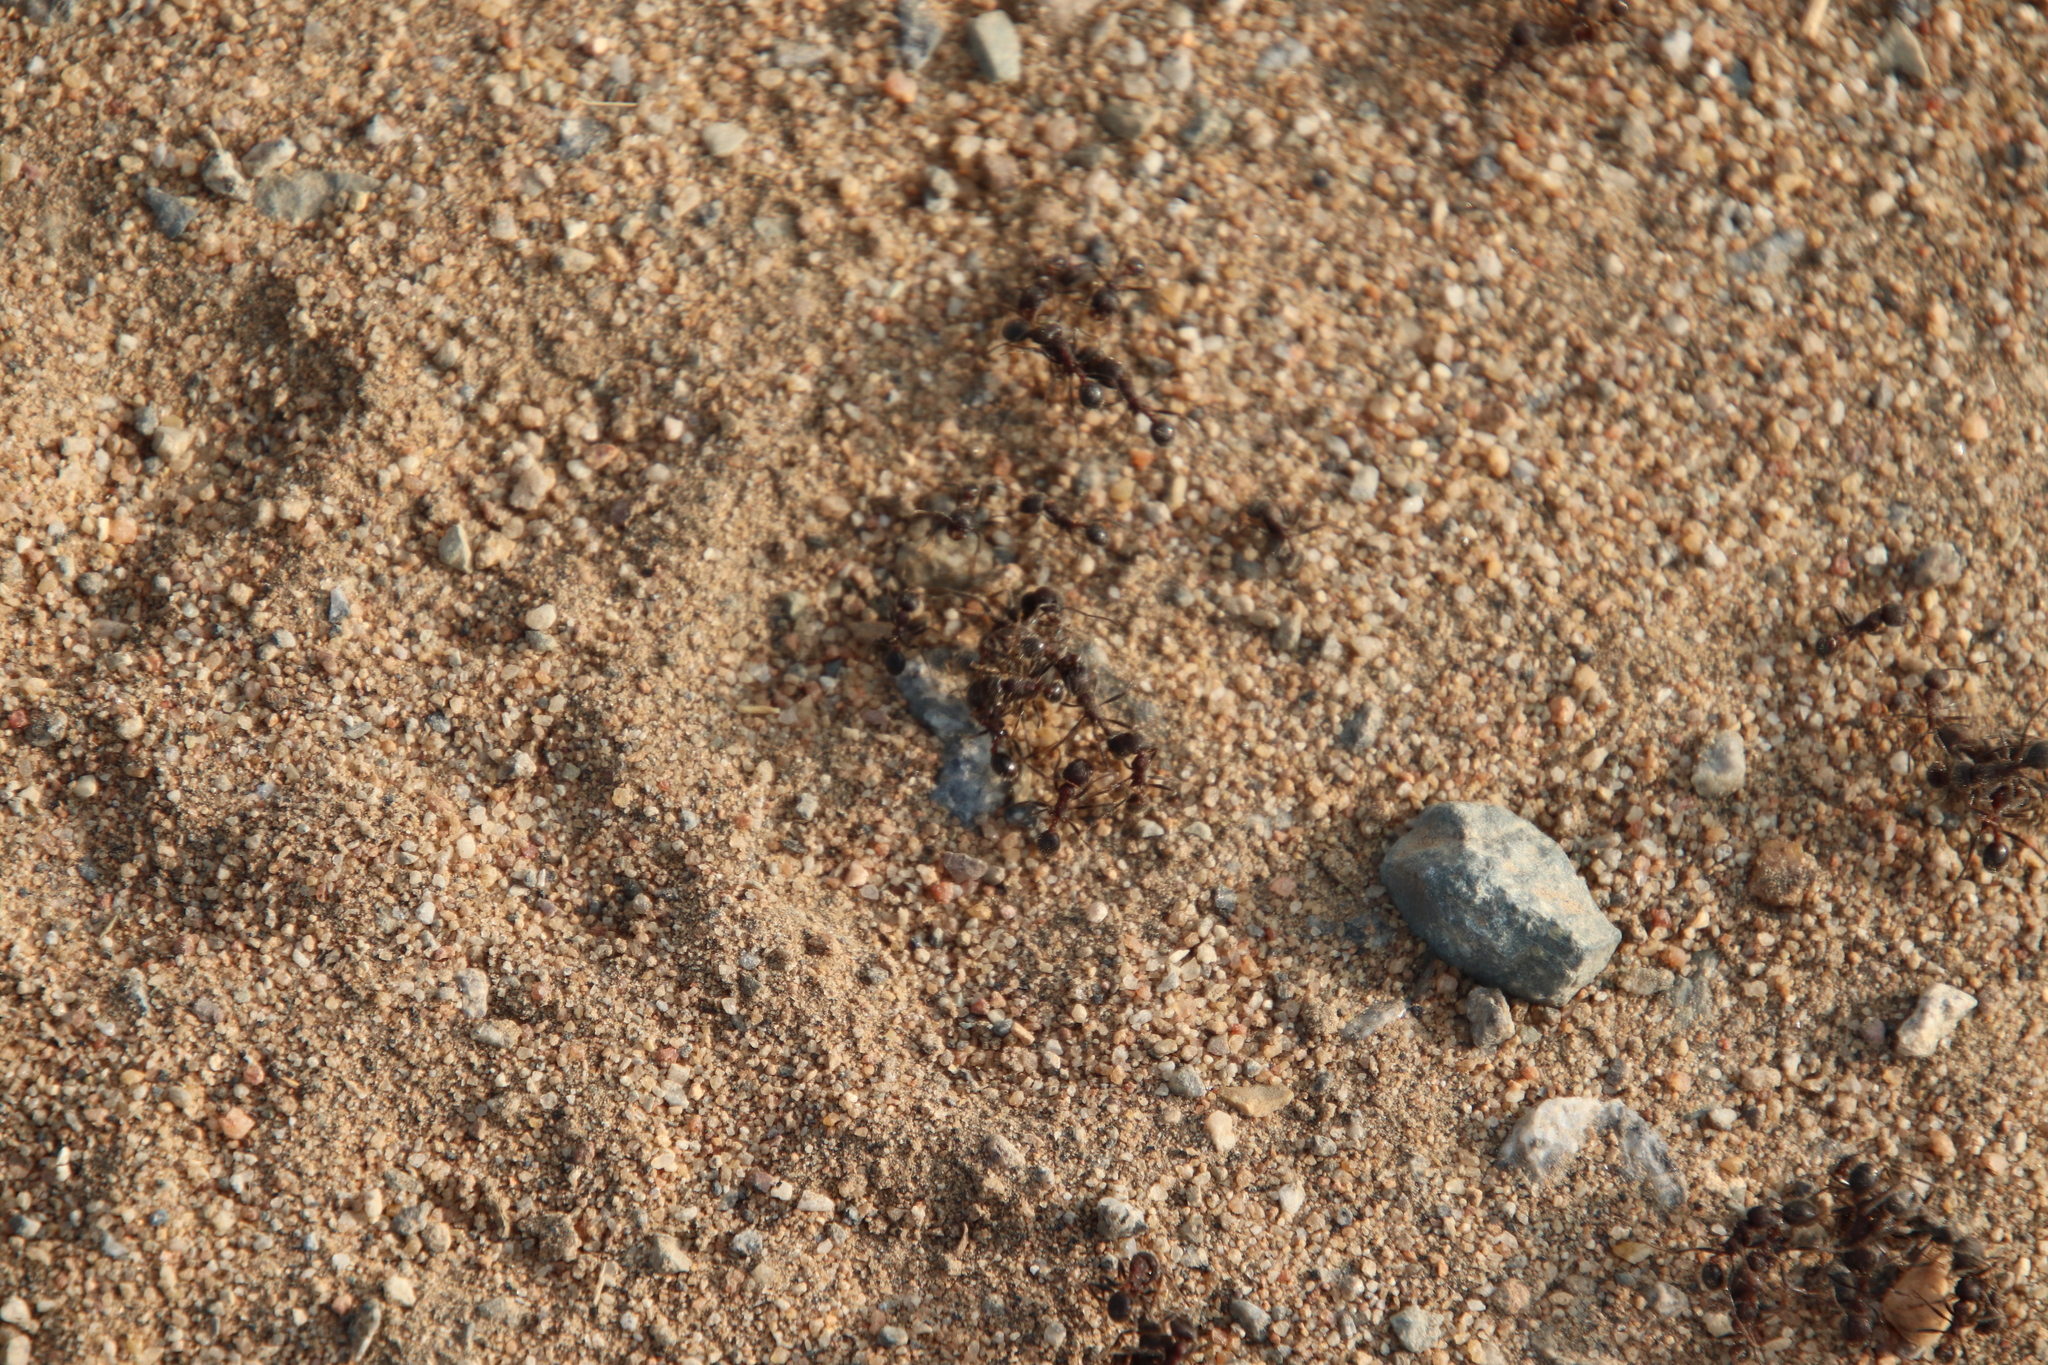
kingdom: Animalia
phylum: Arthropoda
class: Insecta
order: Hymenoptera
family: Formicidae
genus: Veromessor
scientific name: Veromessor andrei
